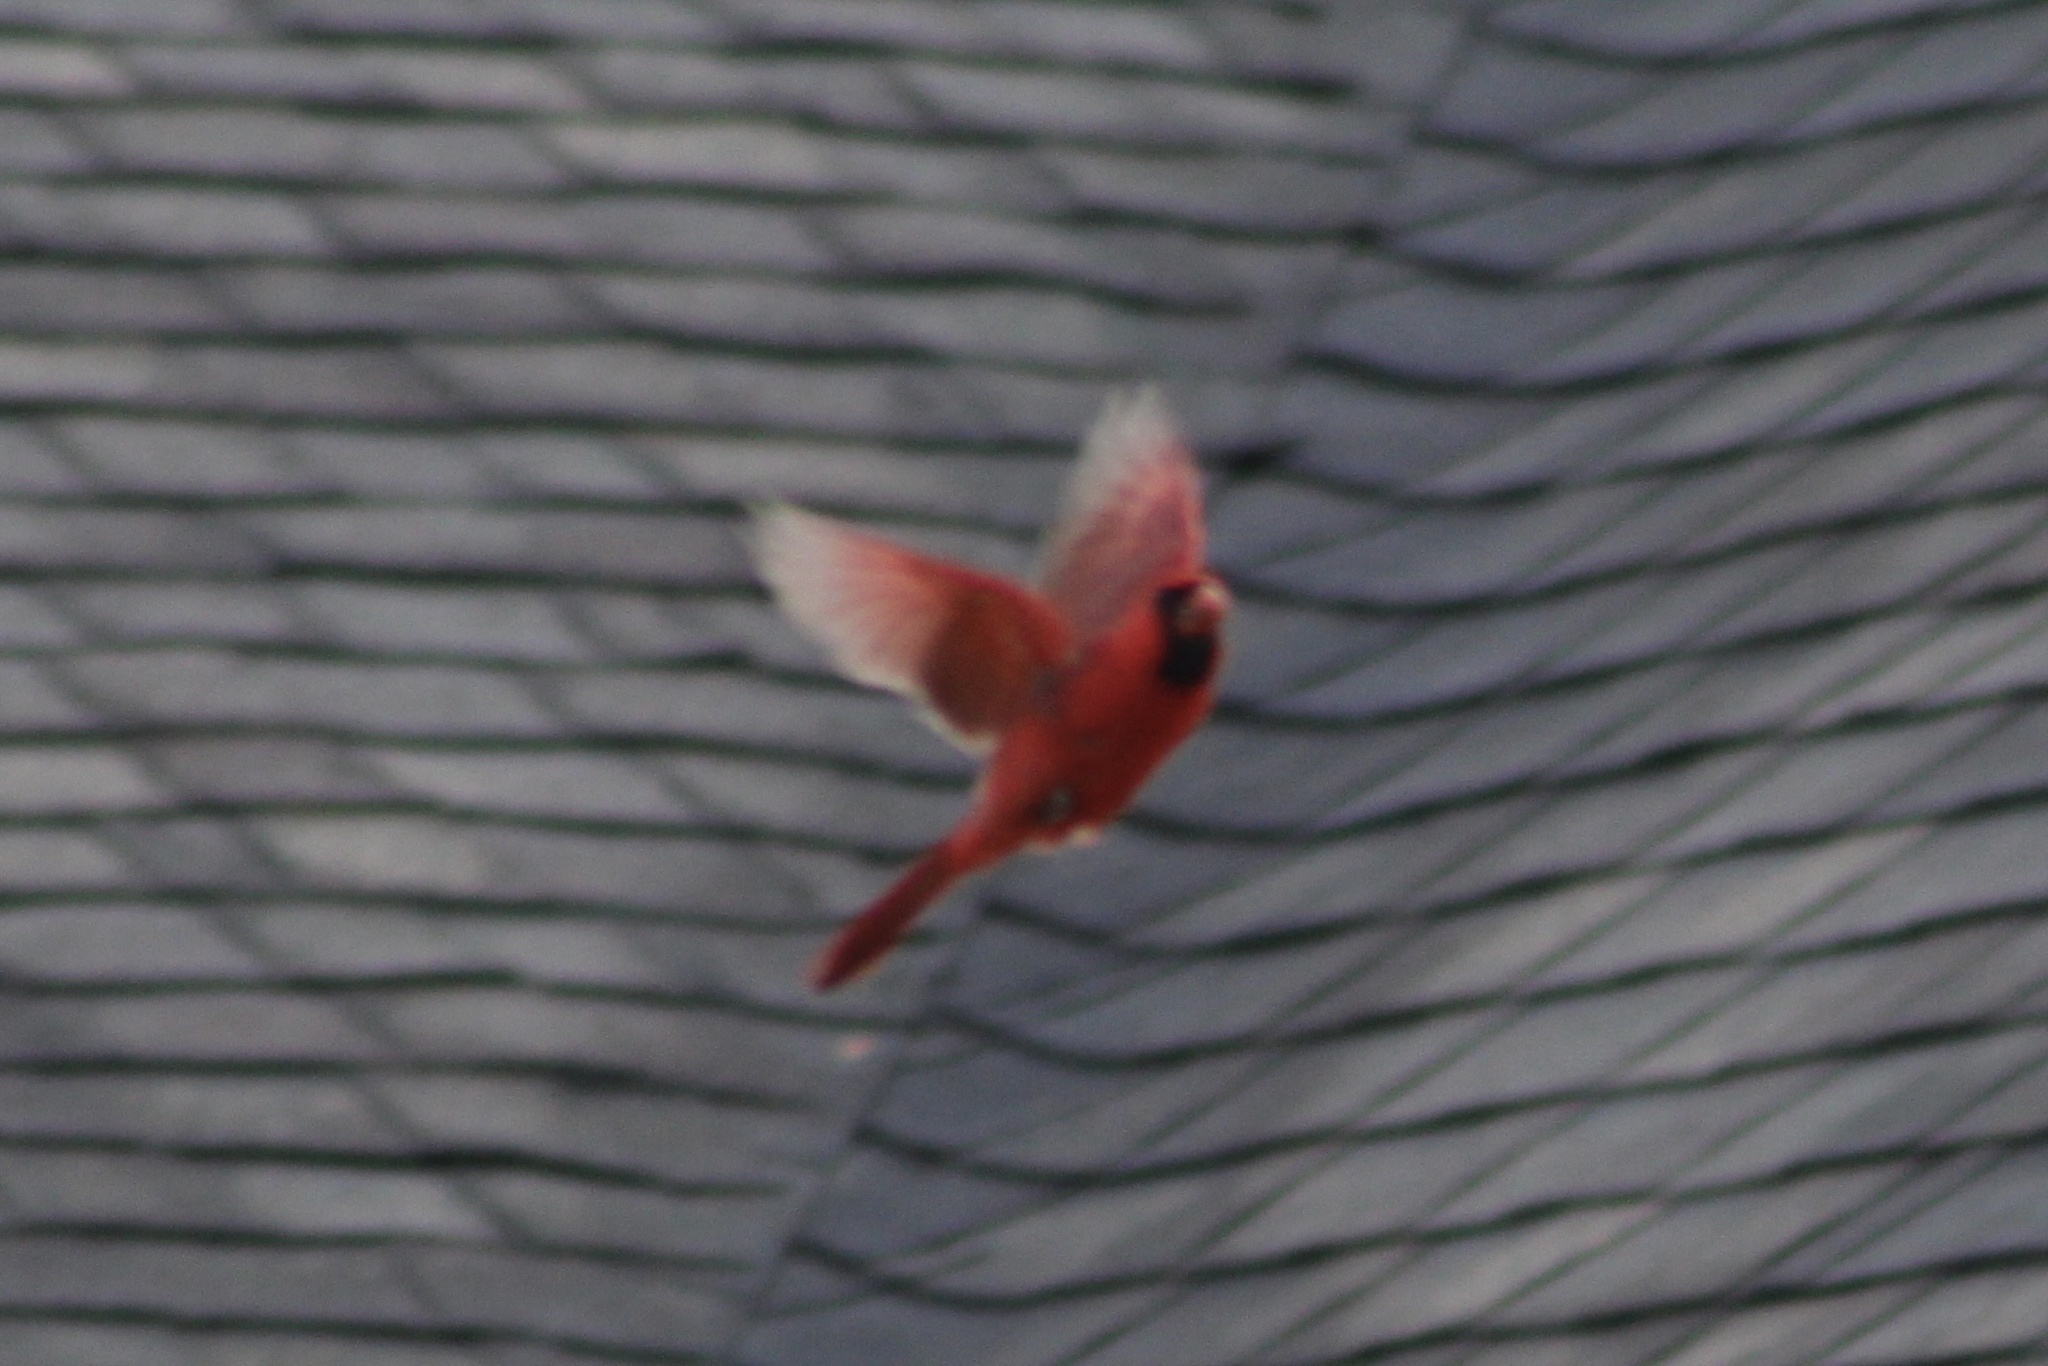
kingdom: Animalia
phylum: Chordata
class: Aves
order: Passeriformes
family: Cardinalidae
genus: Cardinalis
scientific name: Cardinalis cardinalis
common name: Northern cardinal
